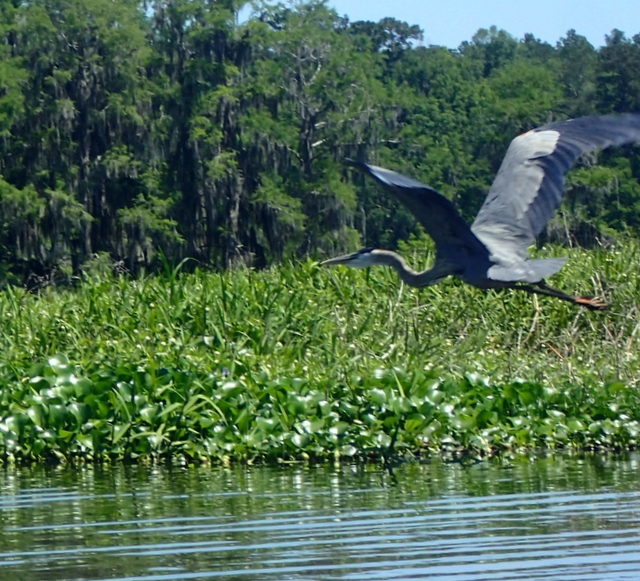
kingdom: Animalia
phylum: Chordata
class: Aves
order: Pelecaniformes
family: Ardeidae
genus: Ardea
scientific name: Ardea herodias
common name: Great blue heron
